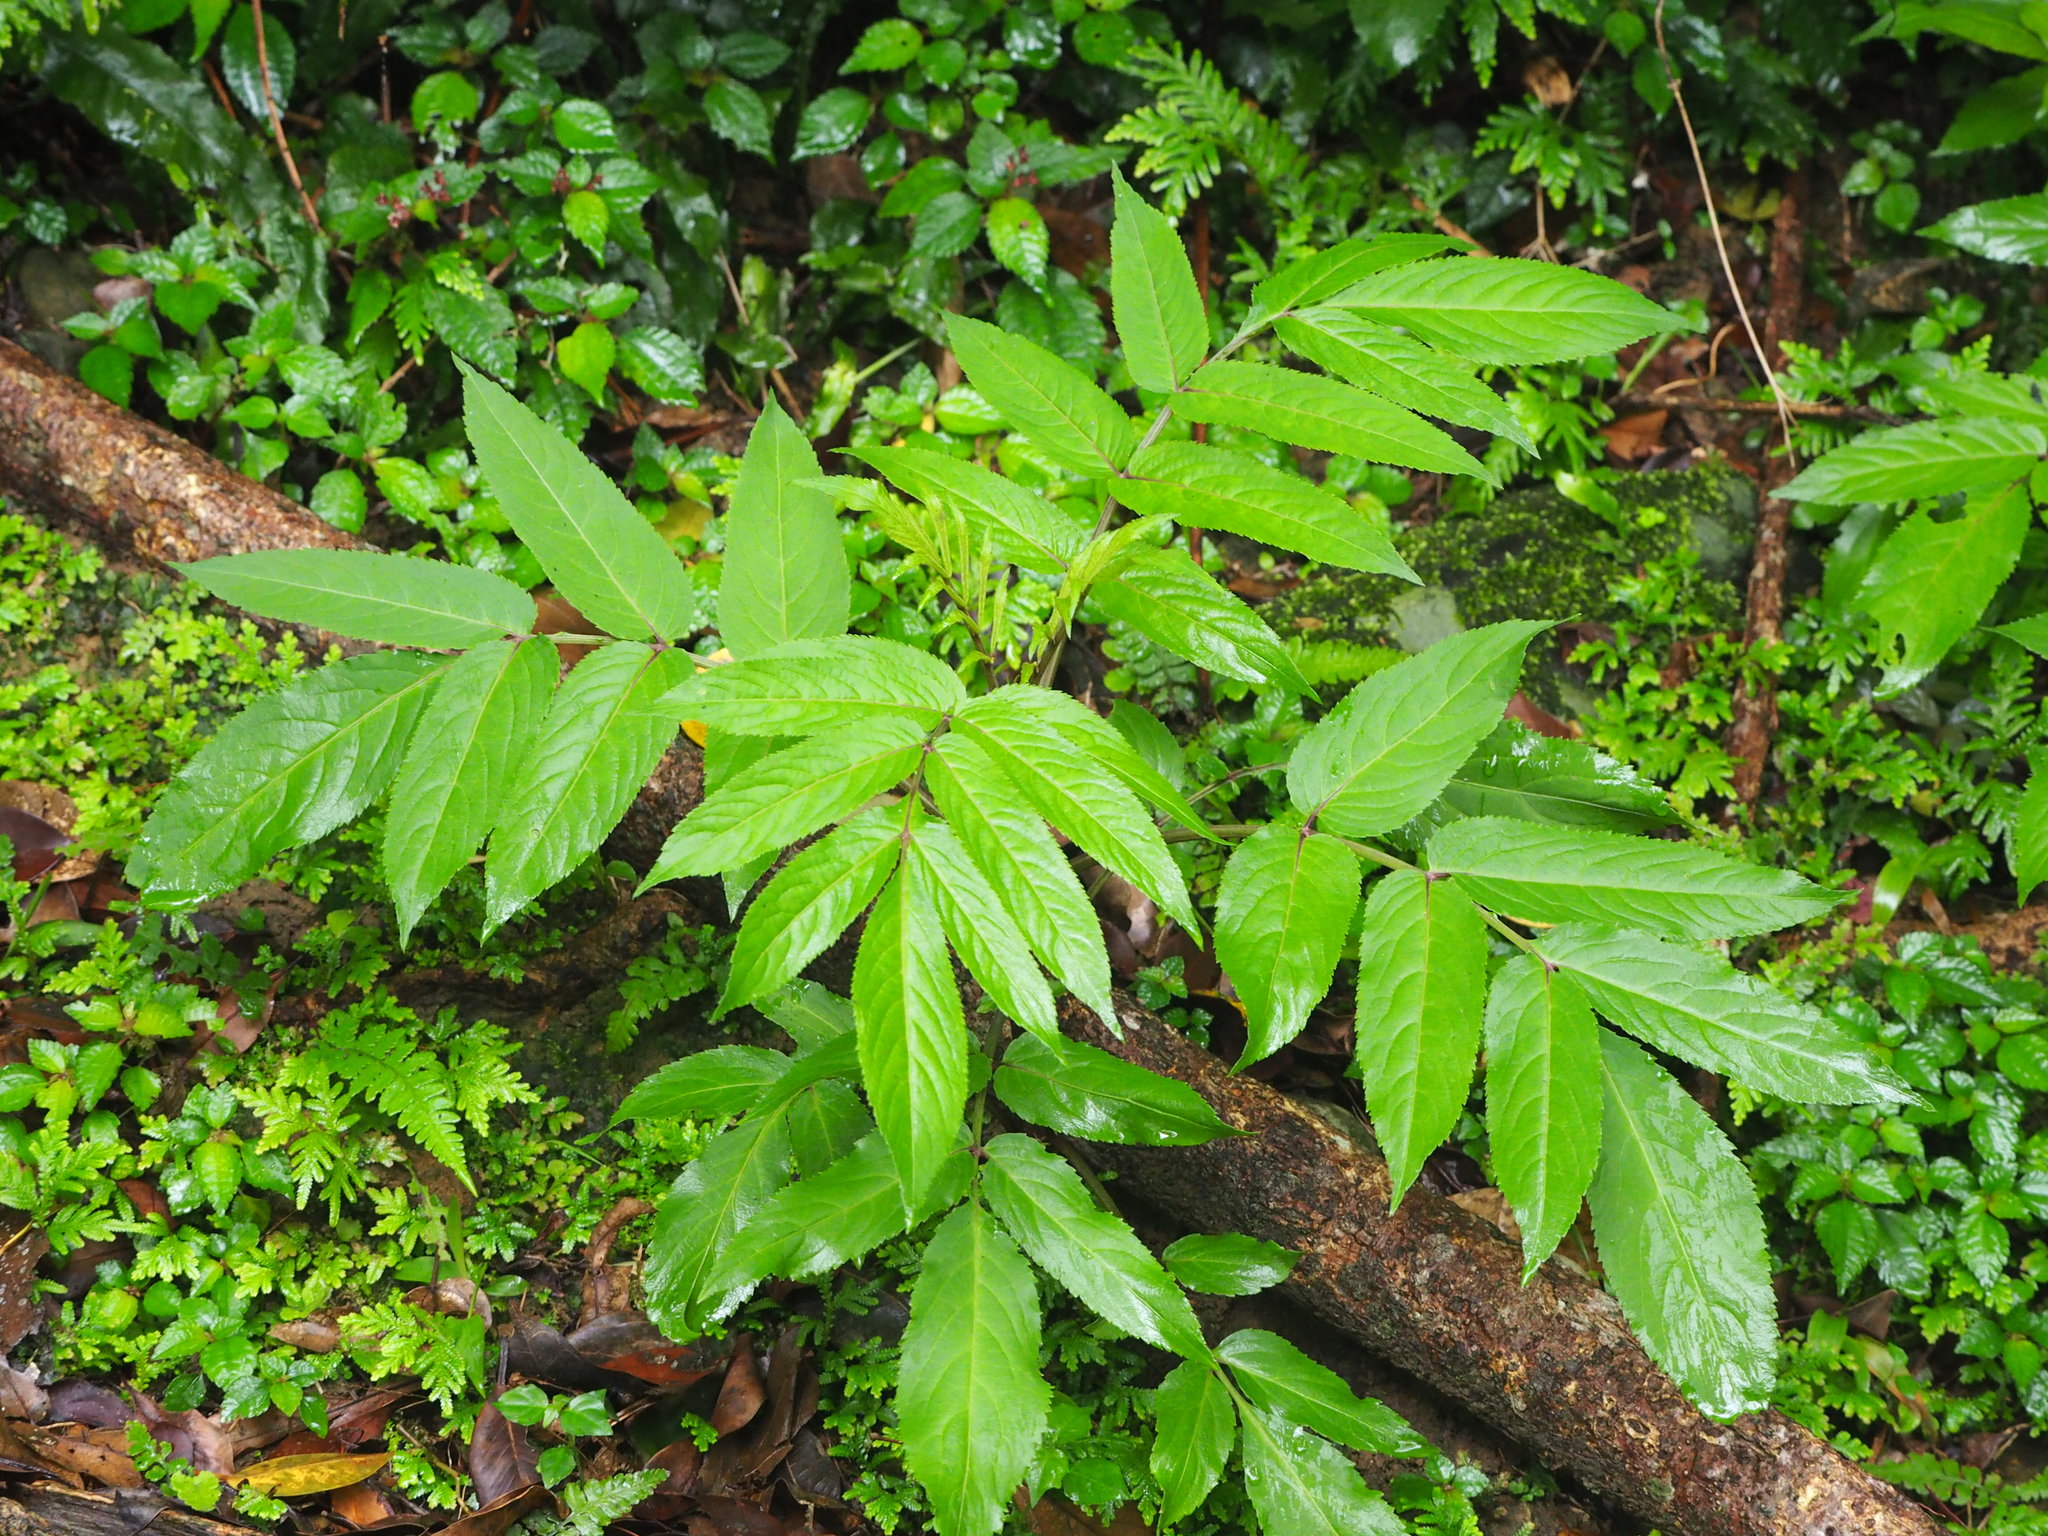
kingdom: Plantae
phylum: Tracheophyta
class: Magnoliopsida
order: Dipsacales
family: Viburnaceae
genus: Sambucus
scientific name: Sambucus javanica
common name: Chinese elder
